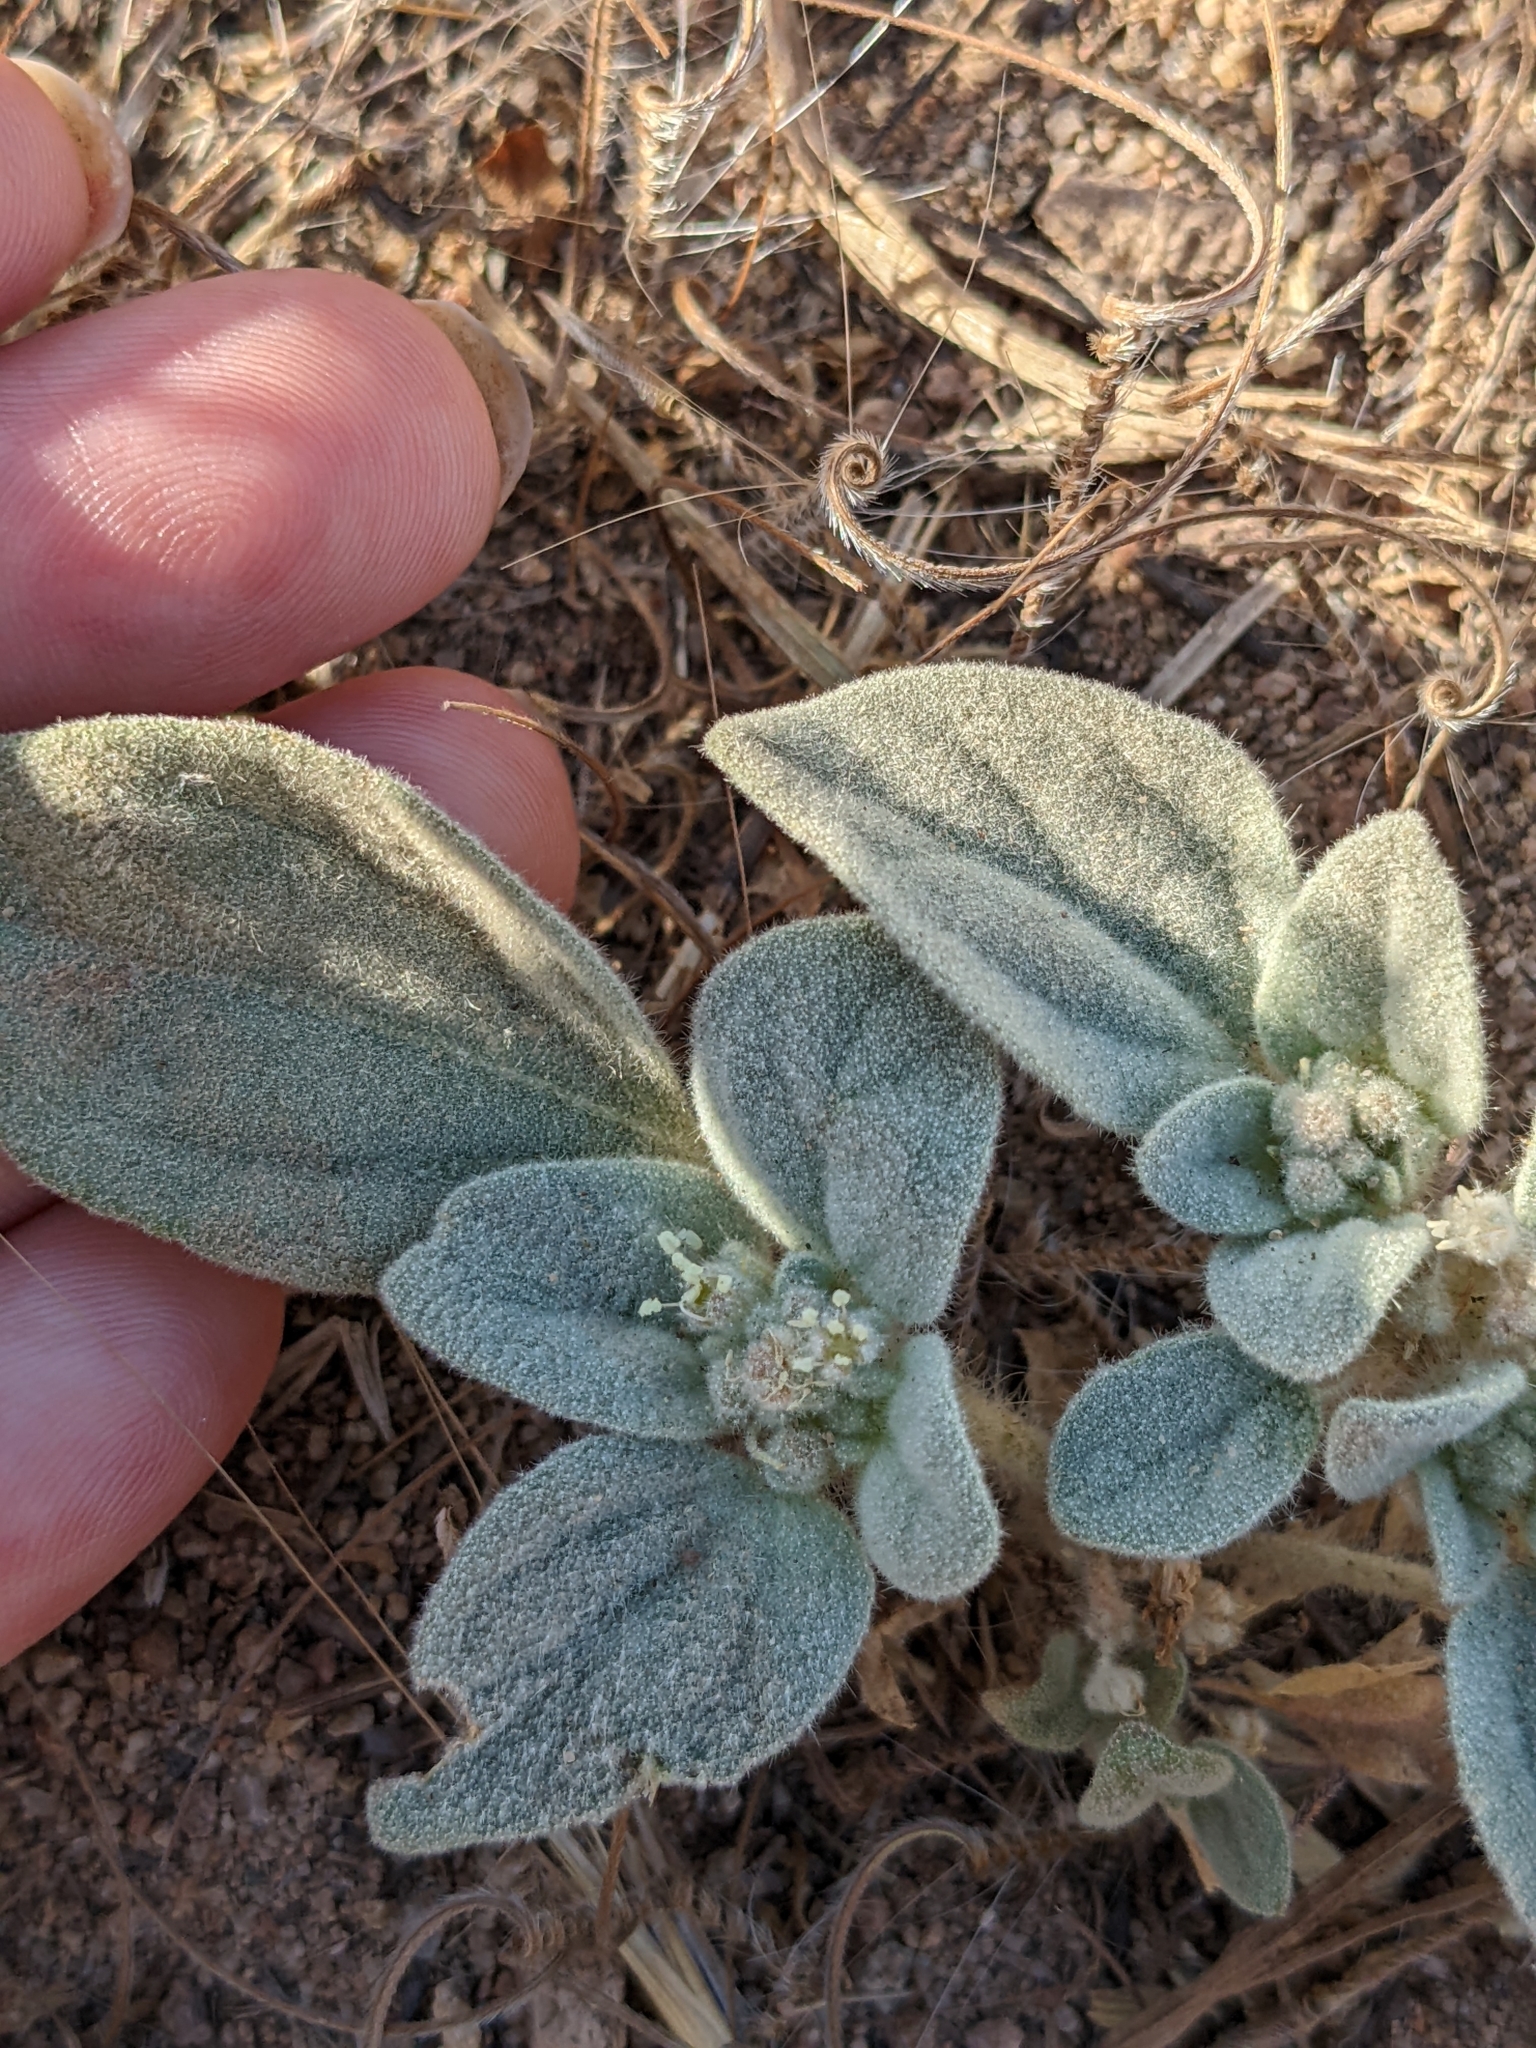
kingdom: Plantae
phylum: Tracheophyta
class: Magnoliopsida
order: Malpighiales
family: Euphorbiaceae
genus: Croton
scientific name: Croton setiger
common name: Dove weed
